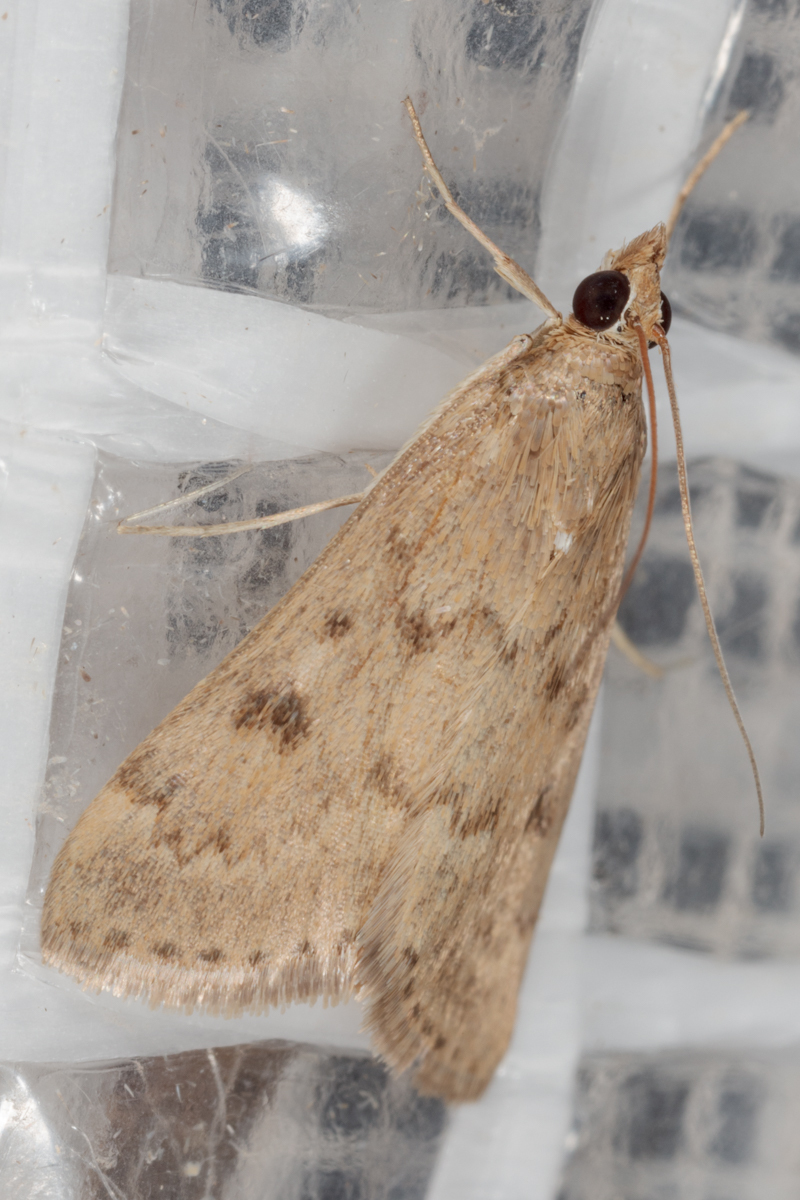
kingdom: Animalia
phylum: Arthropoda
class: Insecta
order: Lepidoptera
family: Crambidae
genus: Achyra
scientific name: Achyra rantalis
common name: Garden webworm
